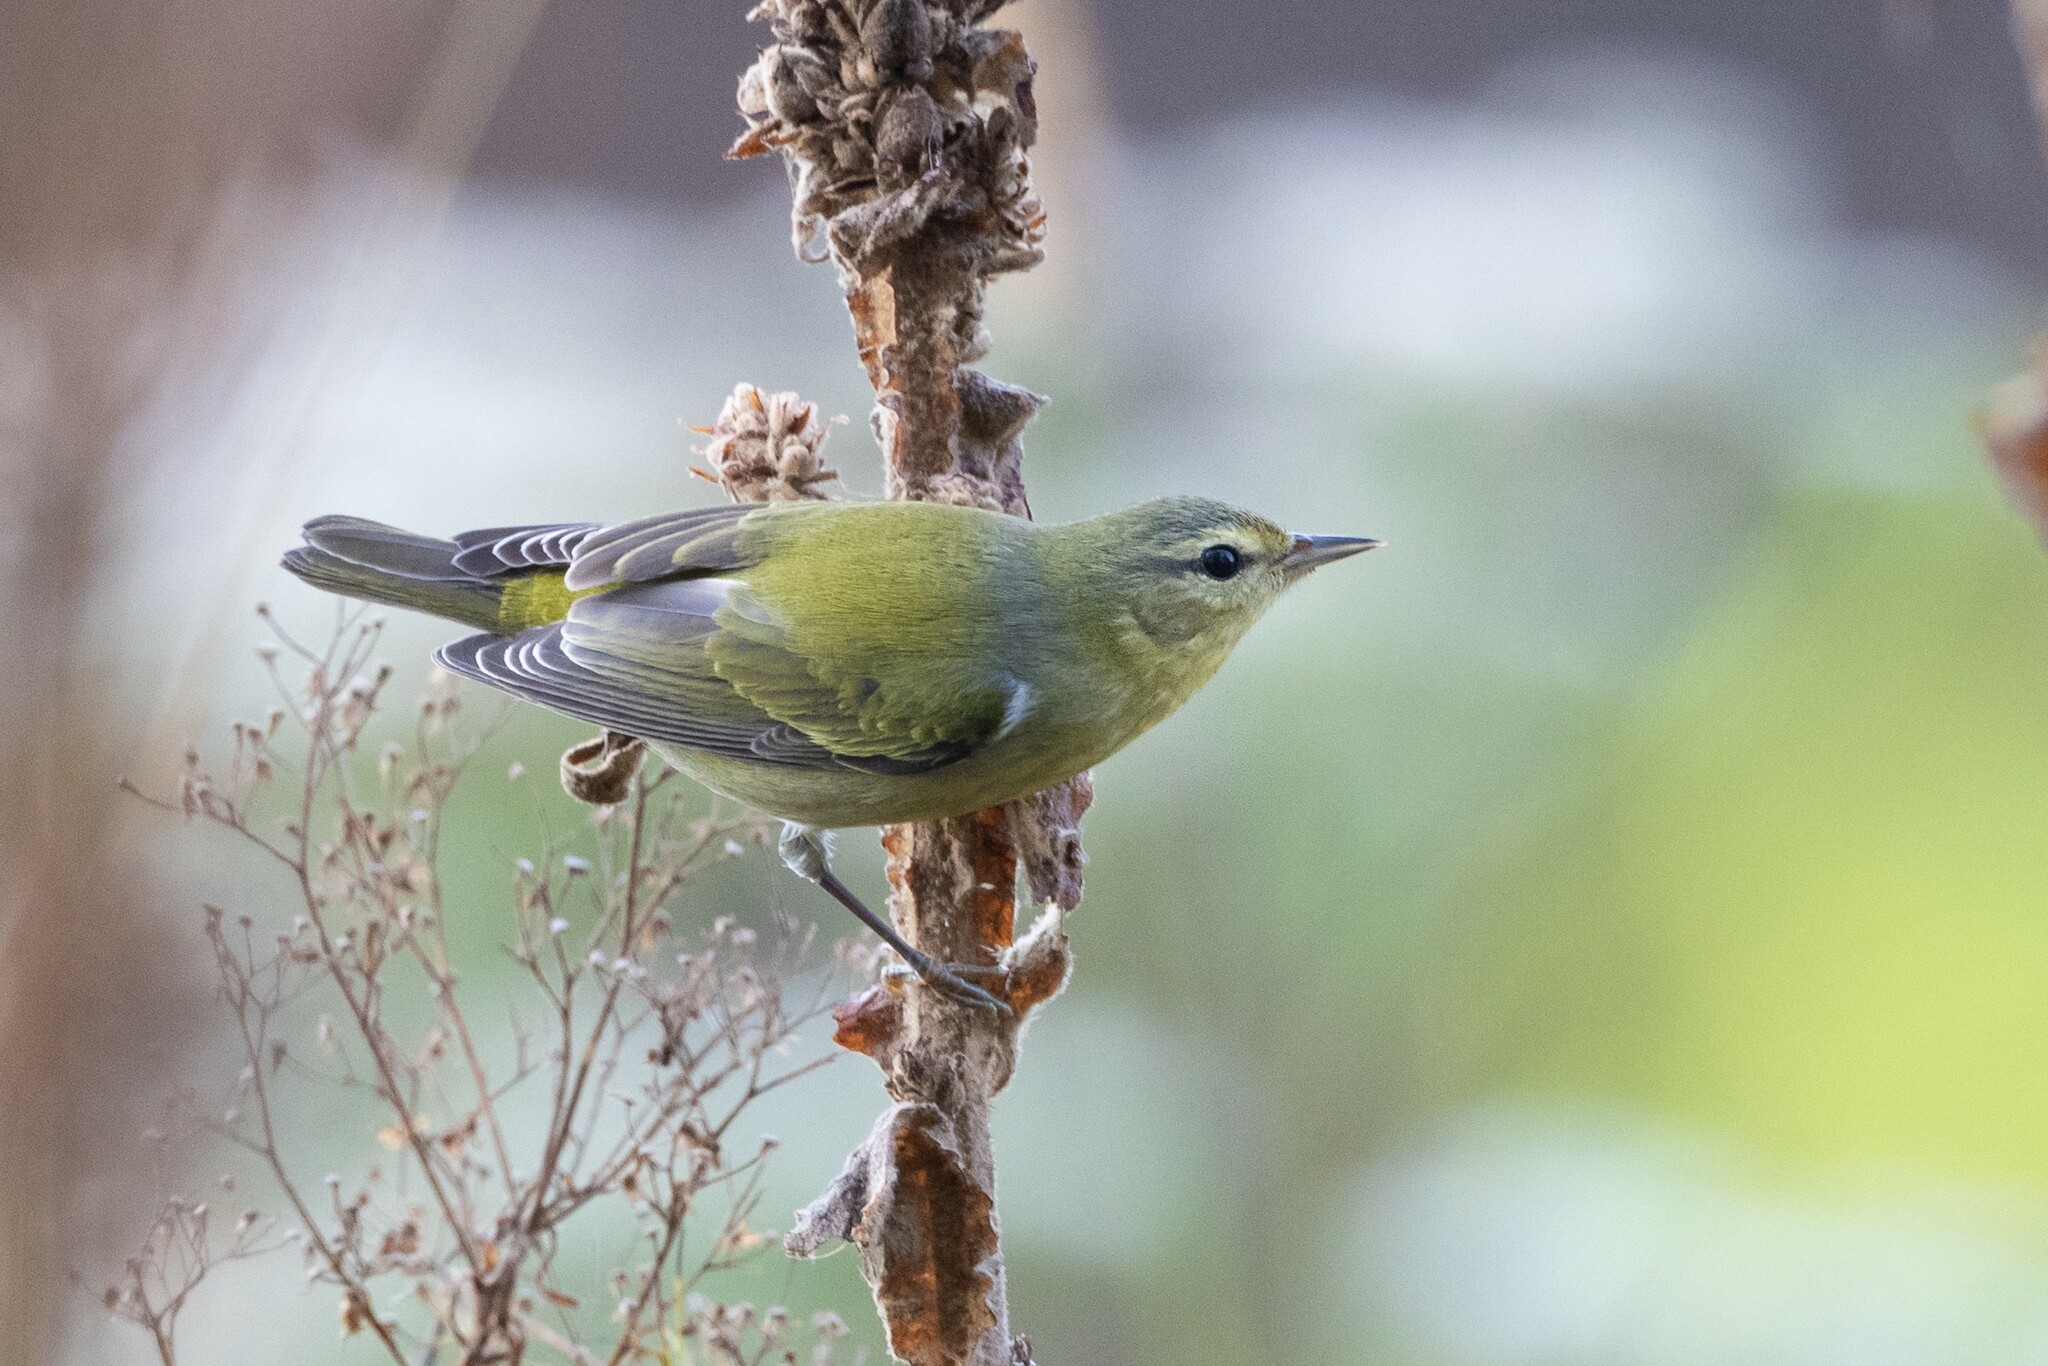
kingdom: Animalia
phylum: Chordata
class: Aves
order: Passeriformes
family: Parulidae
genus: Leiothlypis
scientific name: Leiothlypis peregrina
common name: Tennessee warbler
